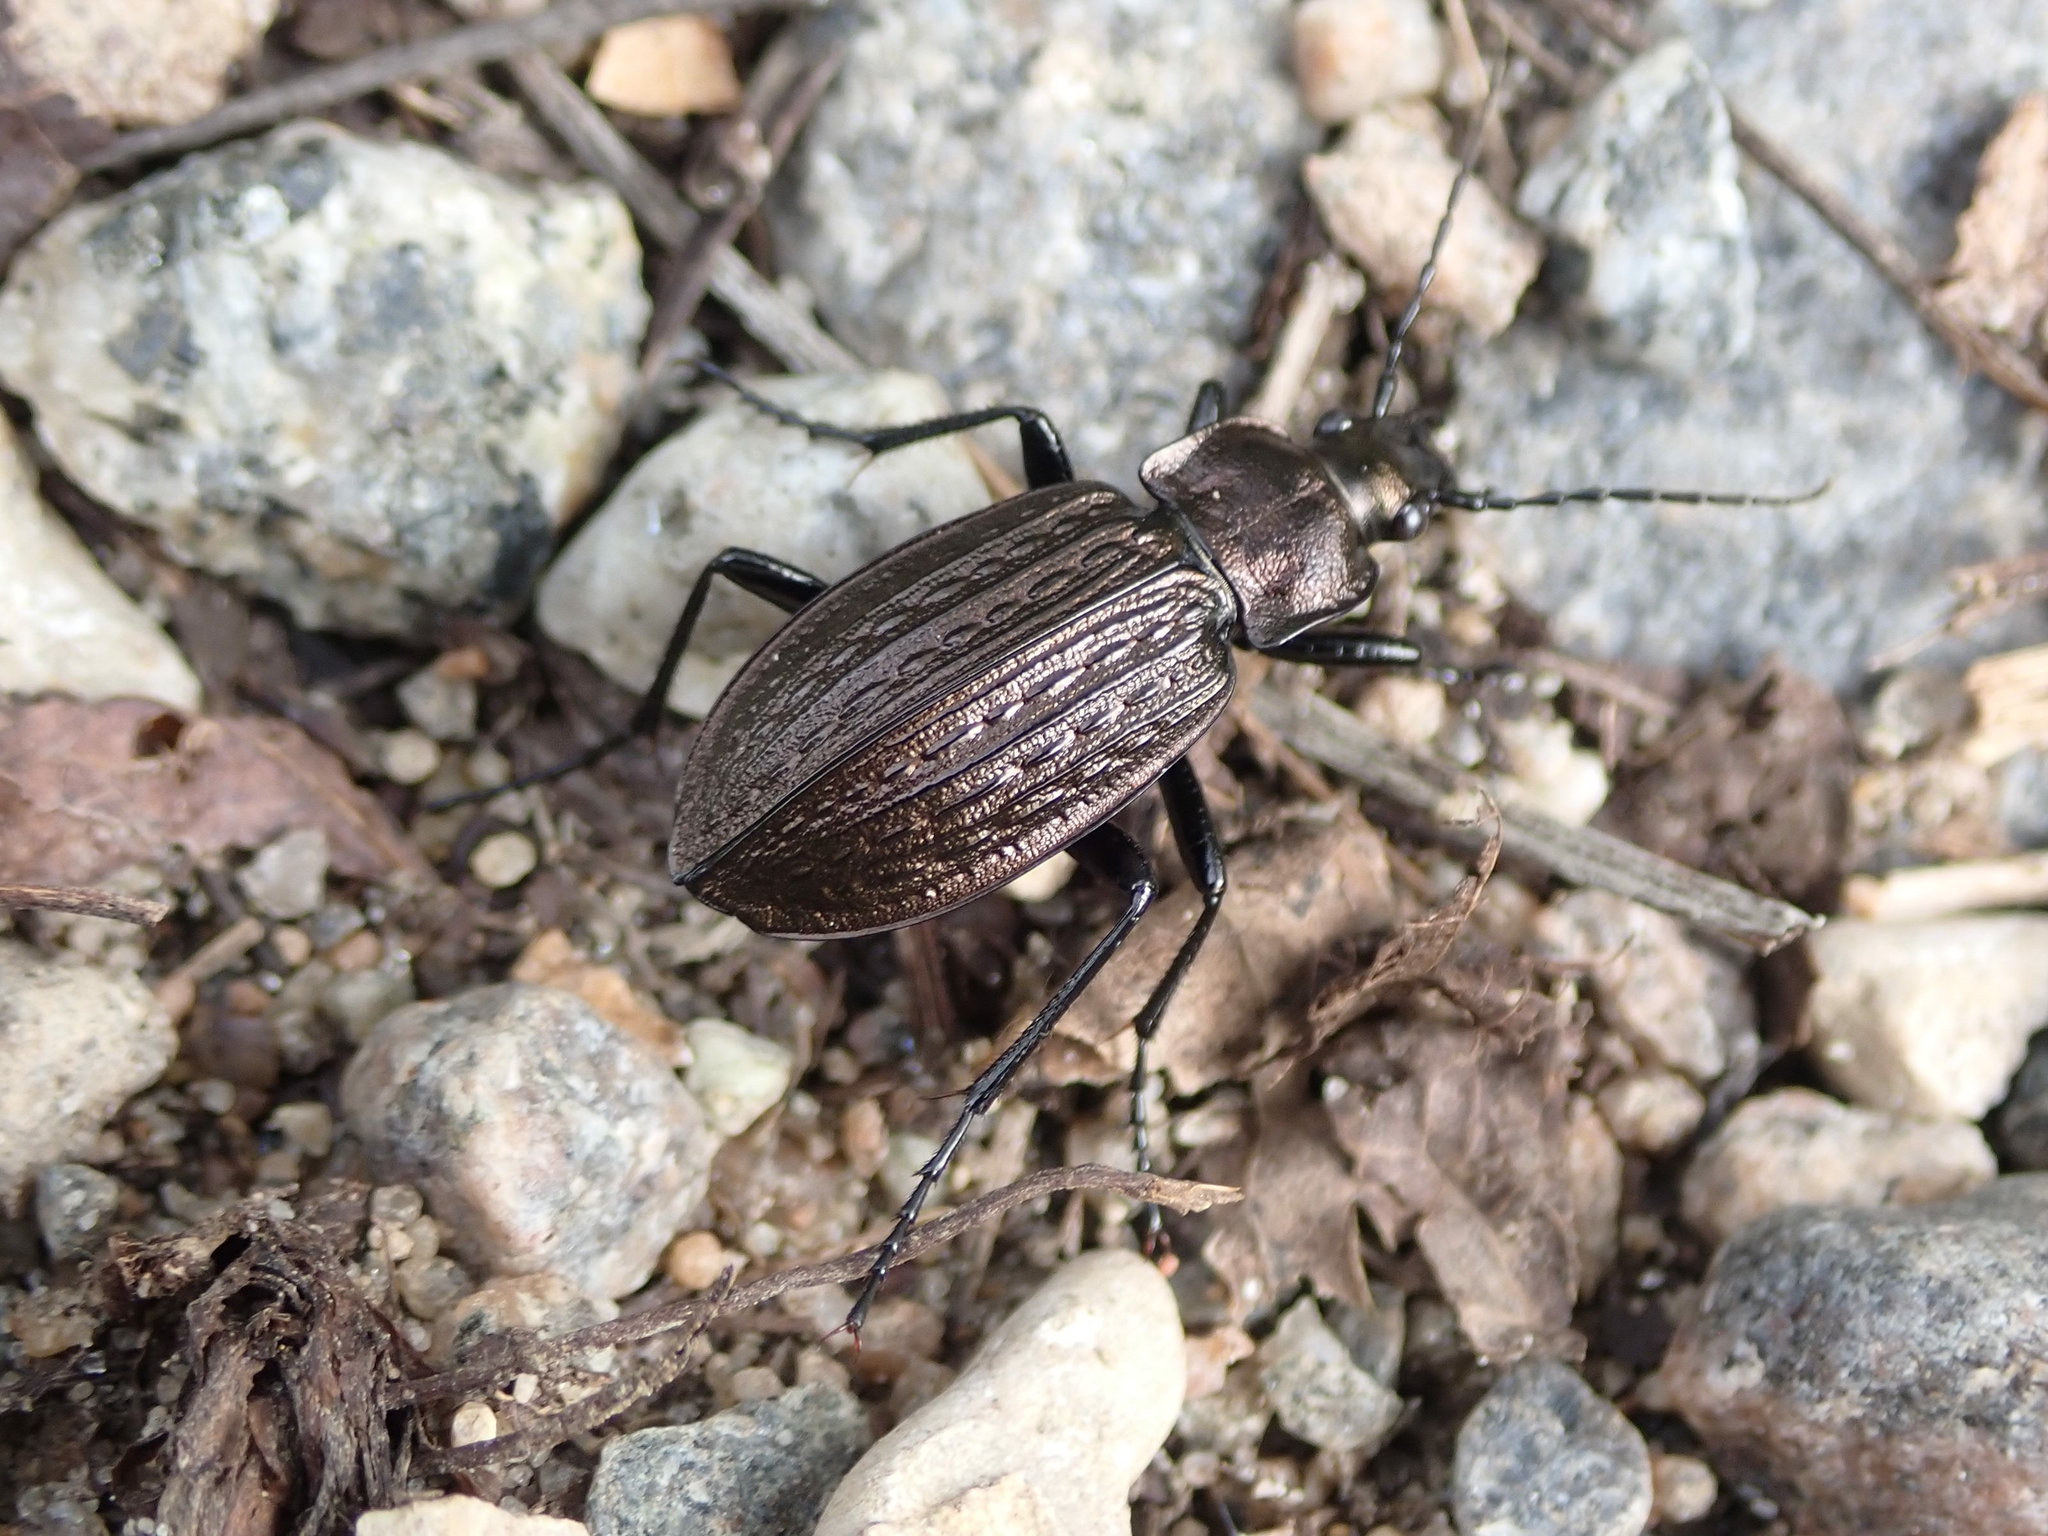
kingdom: Animalia
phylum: Arthropoda
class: Insecta
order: Coleoptera
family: Carabidae
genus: Carabus
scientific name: Carabus granulatus
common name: Granulate ground beetle
